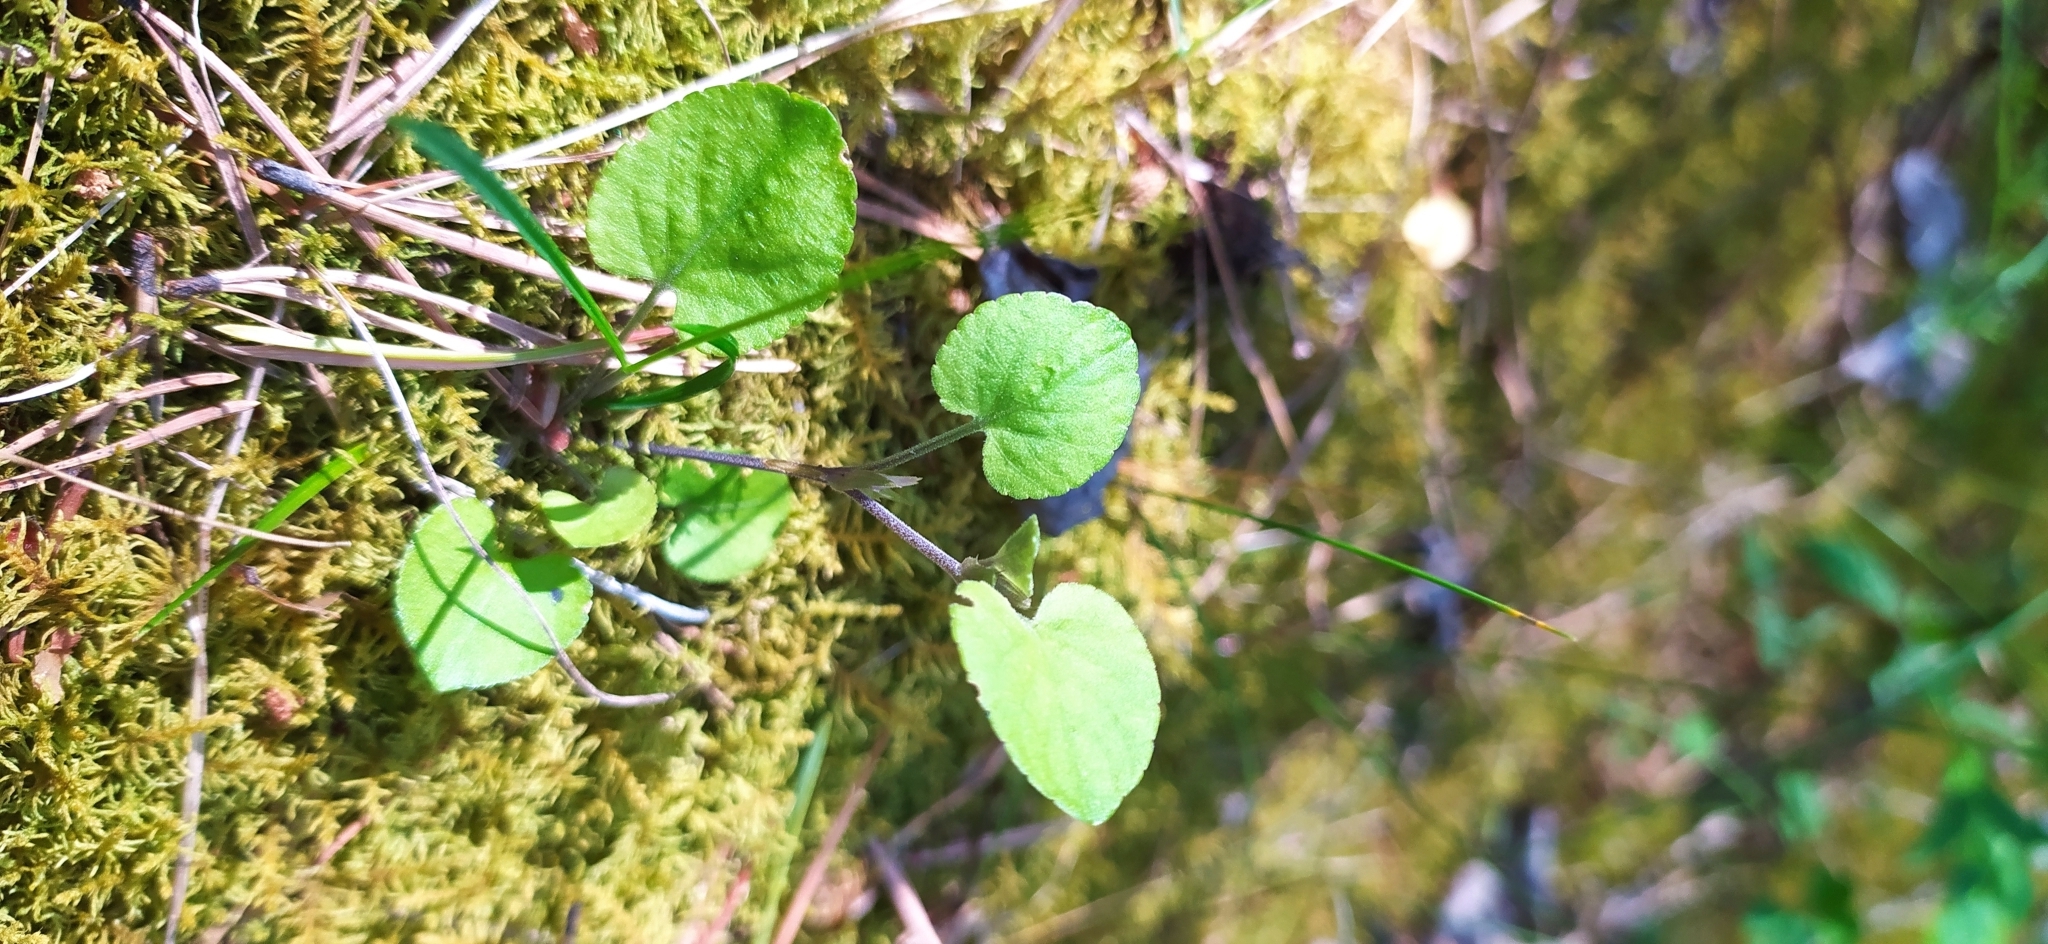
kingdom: Plantae
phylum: Tracheophyta
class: Magnoliopsida
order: Malpighiales
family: Violaceae
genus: Viola
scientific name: Viola rupestris
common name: Teesdale violet
